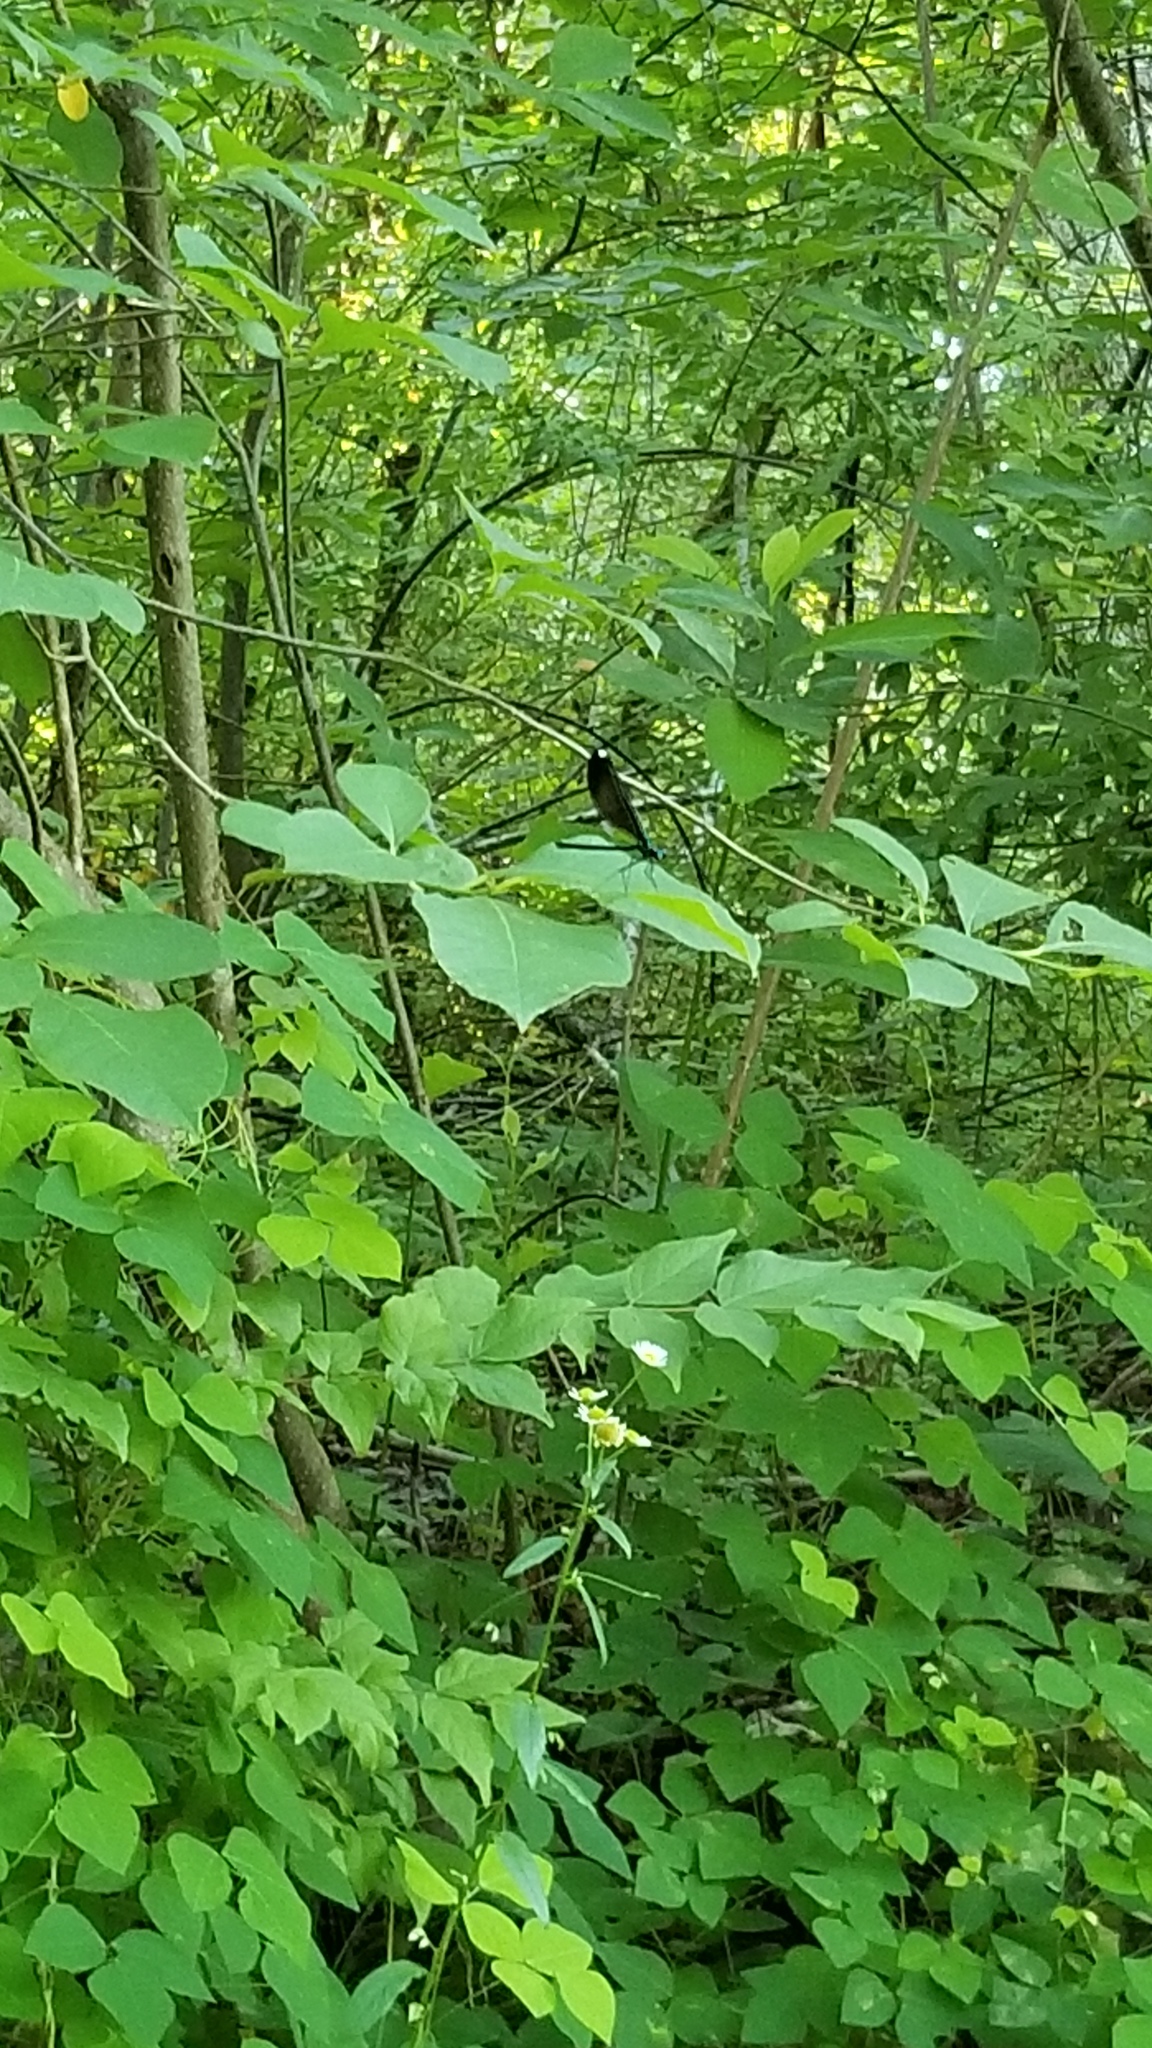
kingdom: Animalia
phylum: Arthropoda
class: Insecta
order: Odonata
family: Calopterygidae
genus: Calopteryx
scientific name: Calopteryx maculata
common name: Ebony jewelwing
